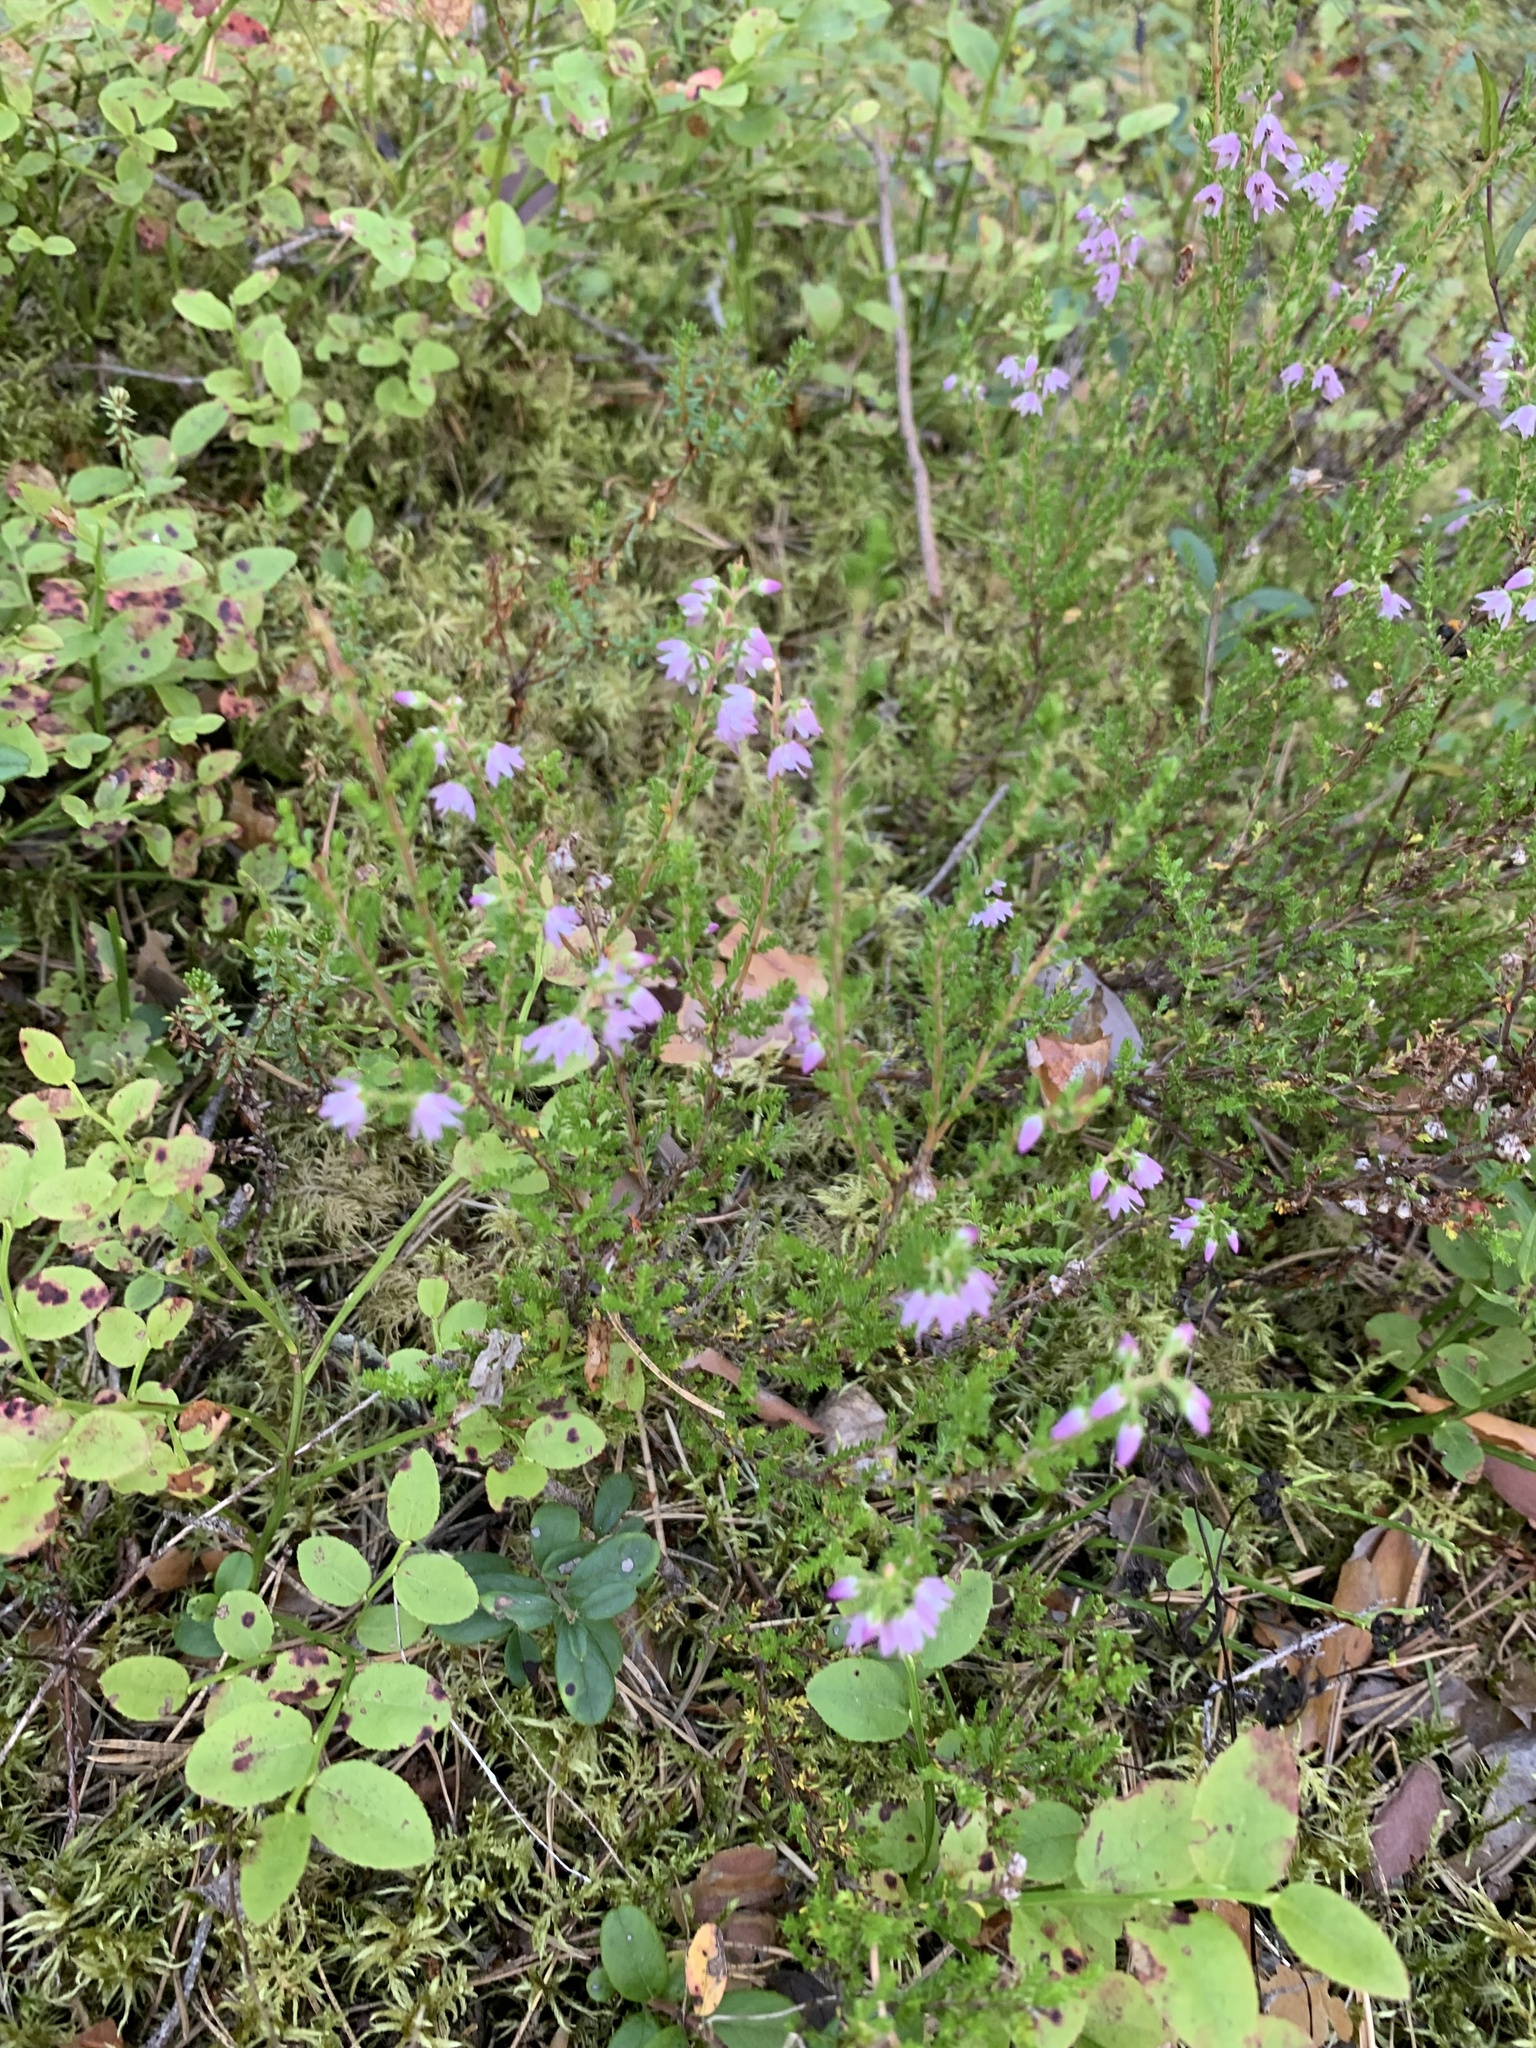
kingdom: Plantae
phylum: Tracheophyta
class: Magnoliopsida
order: Ericales
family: Ericaceae
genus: Calluna
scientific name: Calluna vulgaris
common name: Heather
